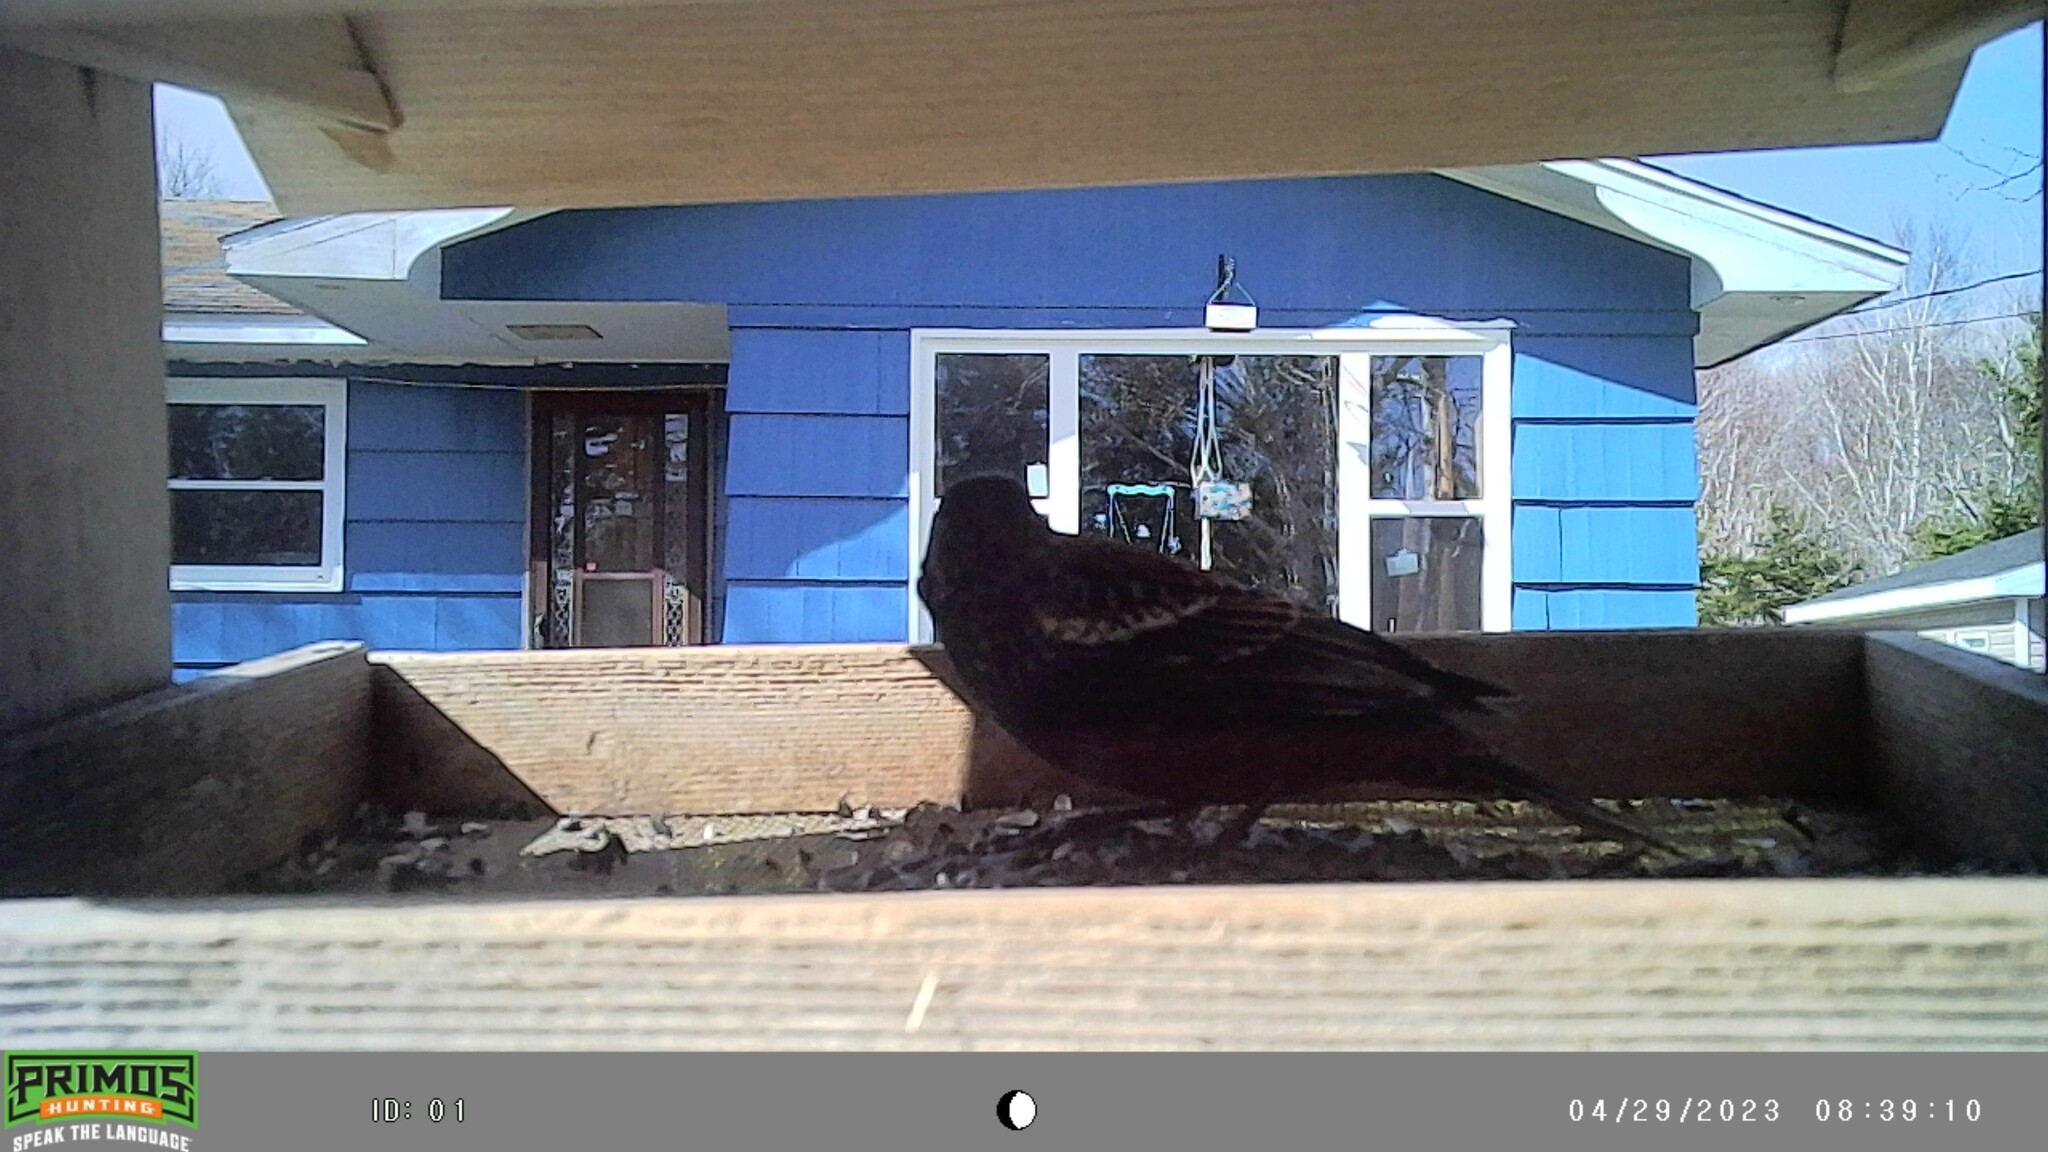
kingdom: Animalia
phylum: Chordata
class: Aves
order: Passeriformes
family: Icteridae
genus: Agelaius
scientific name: Agelaius phoeniceus
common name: Red-winged blackbird
